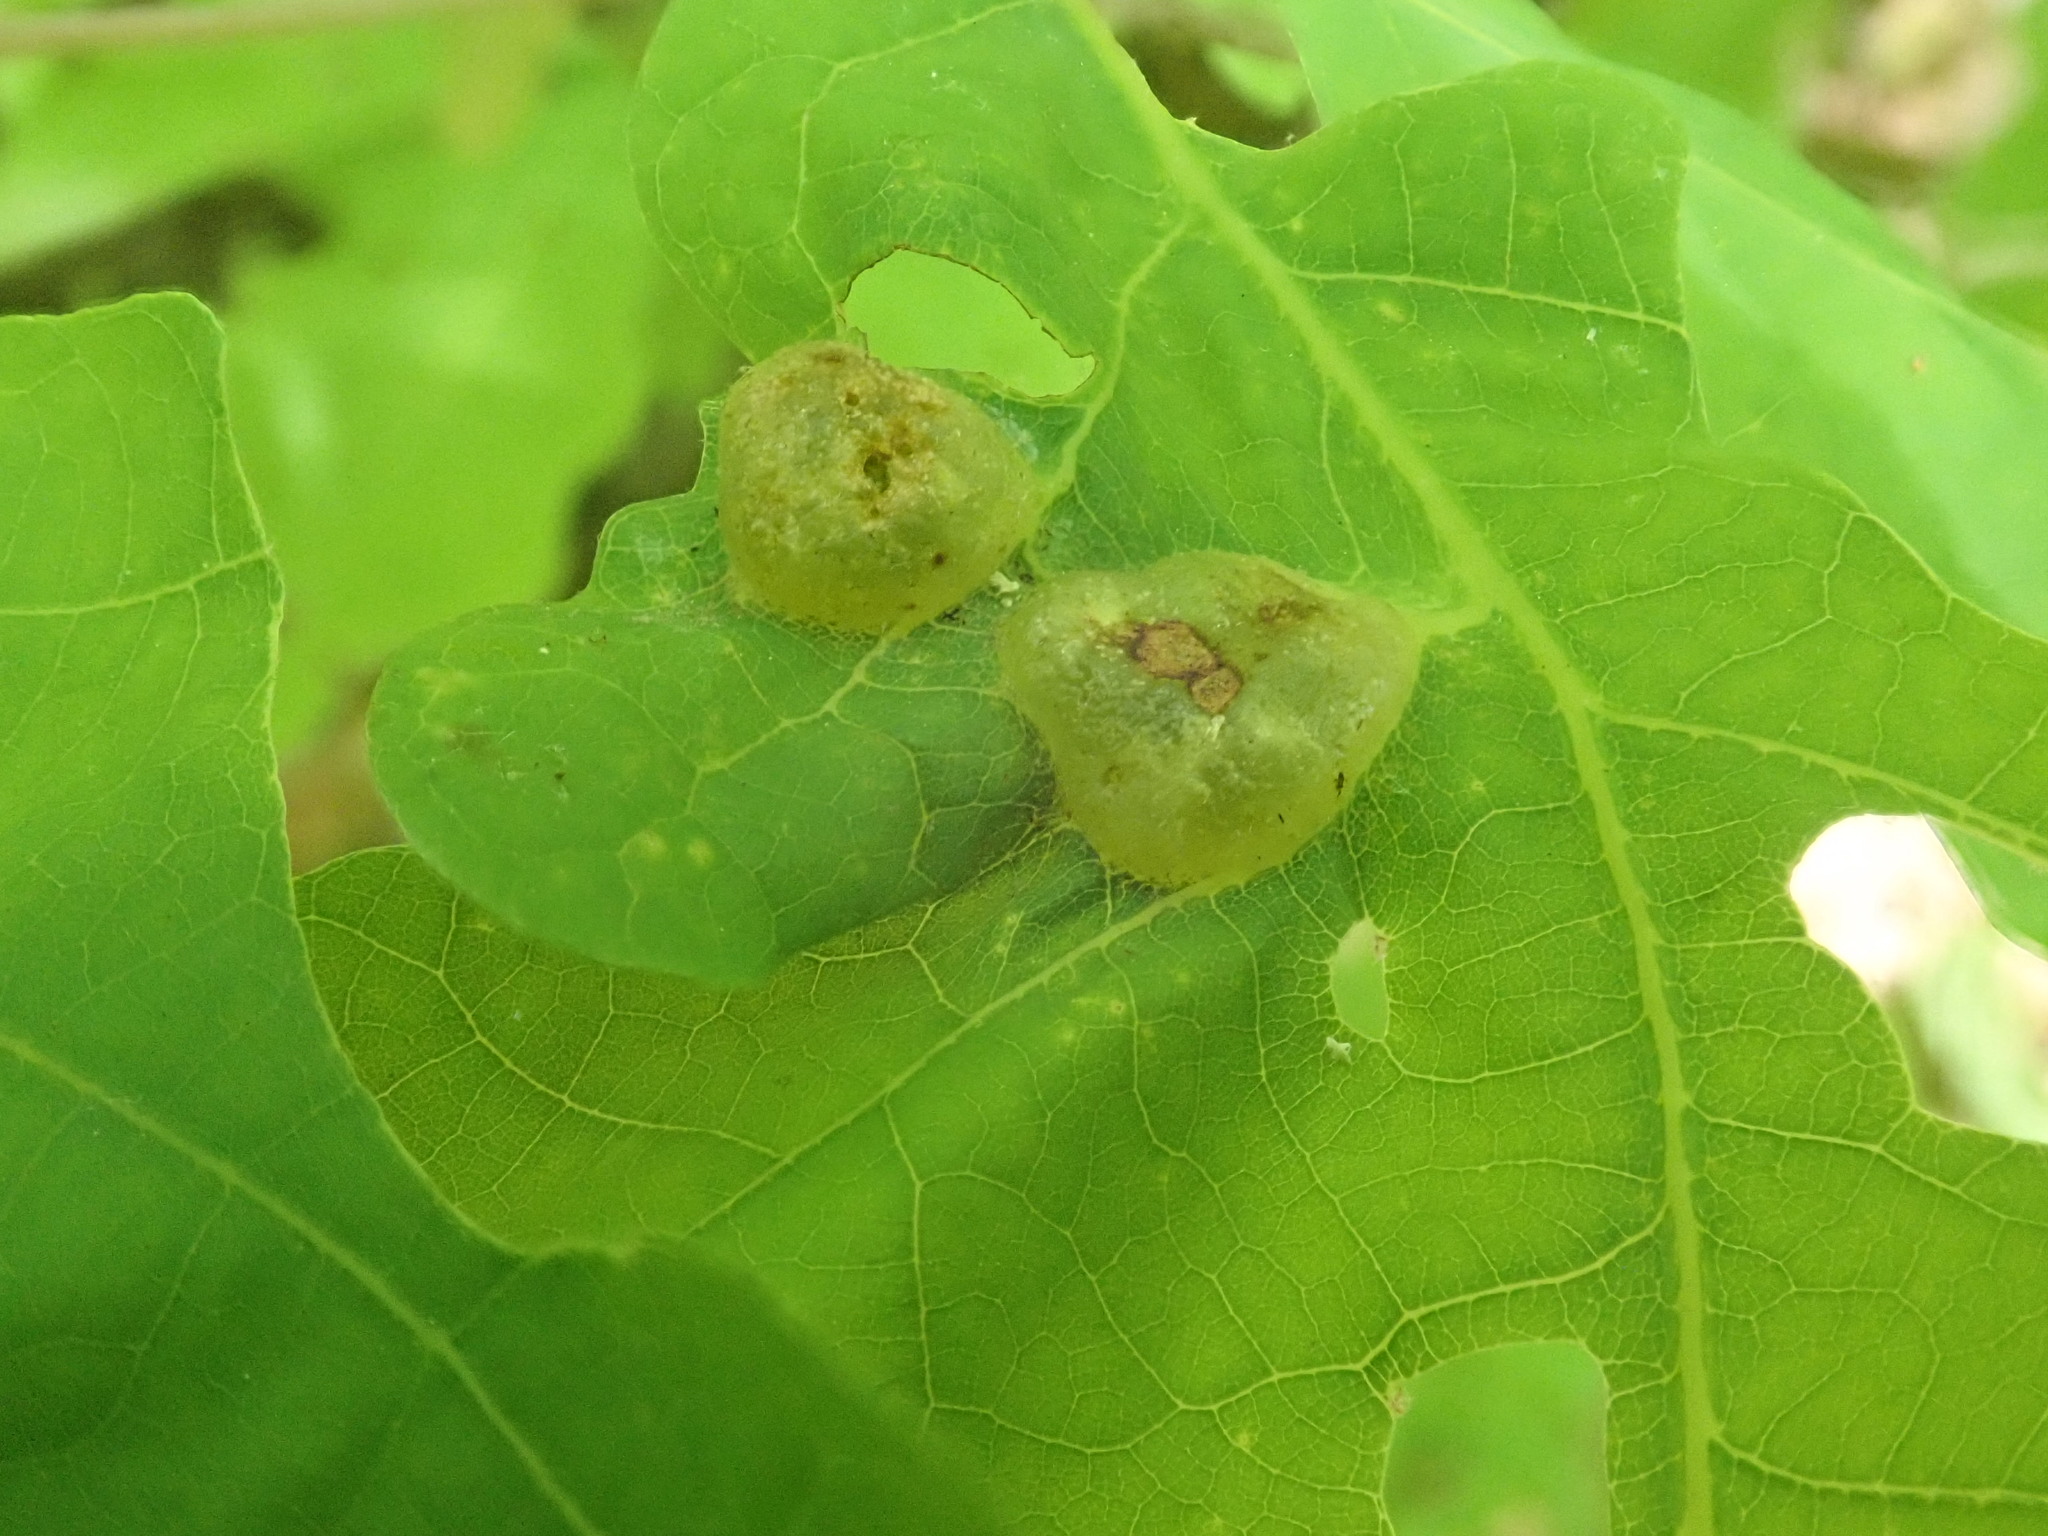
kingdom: Animalia
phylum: Arthropoda
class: Insecta
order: Hymenoptera
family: Cynipidae
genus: Neuroterus
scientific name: Neuroterus quercusirregularis
